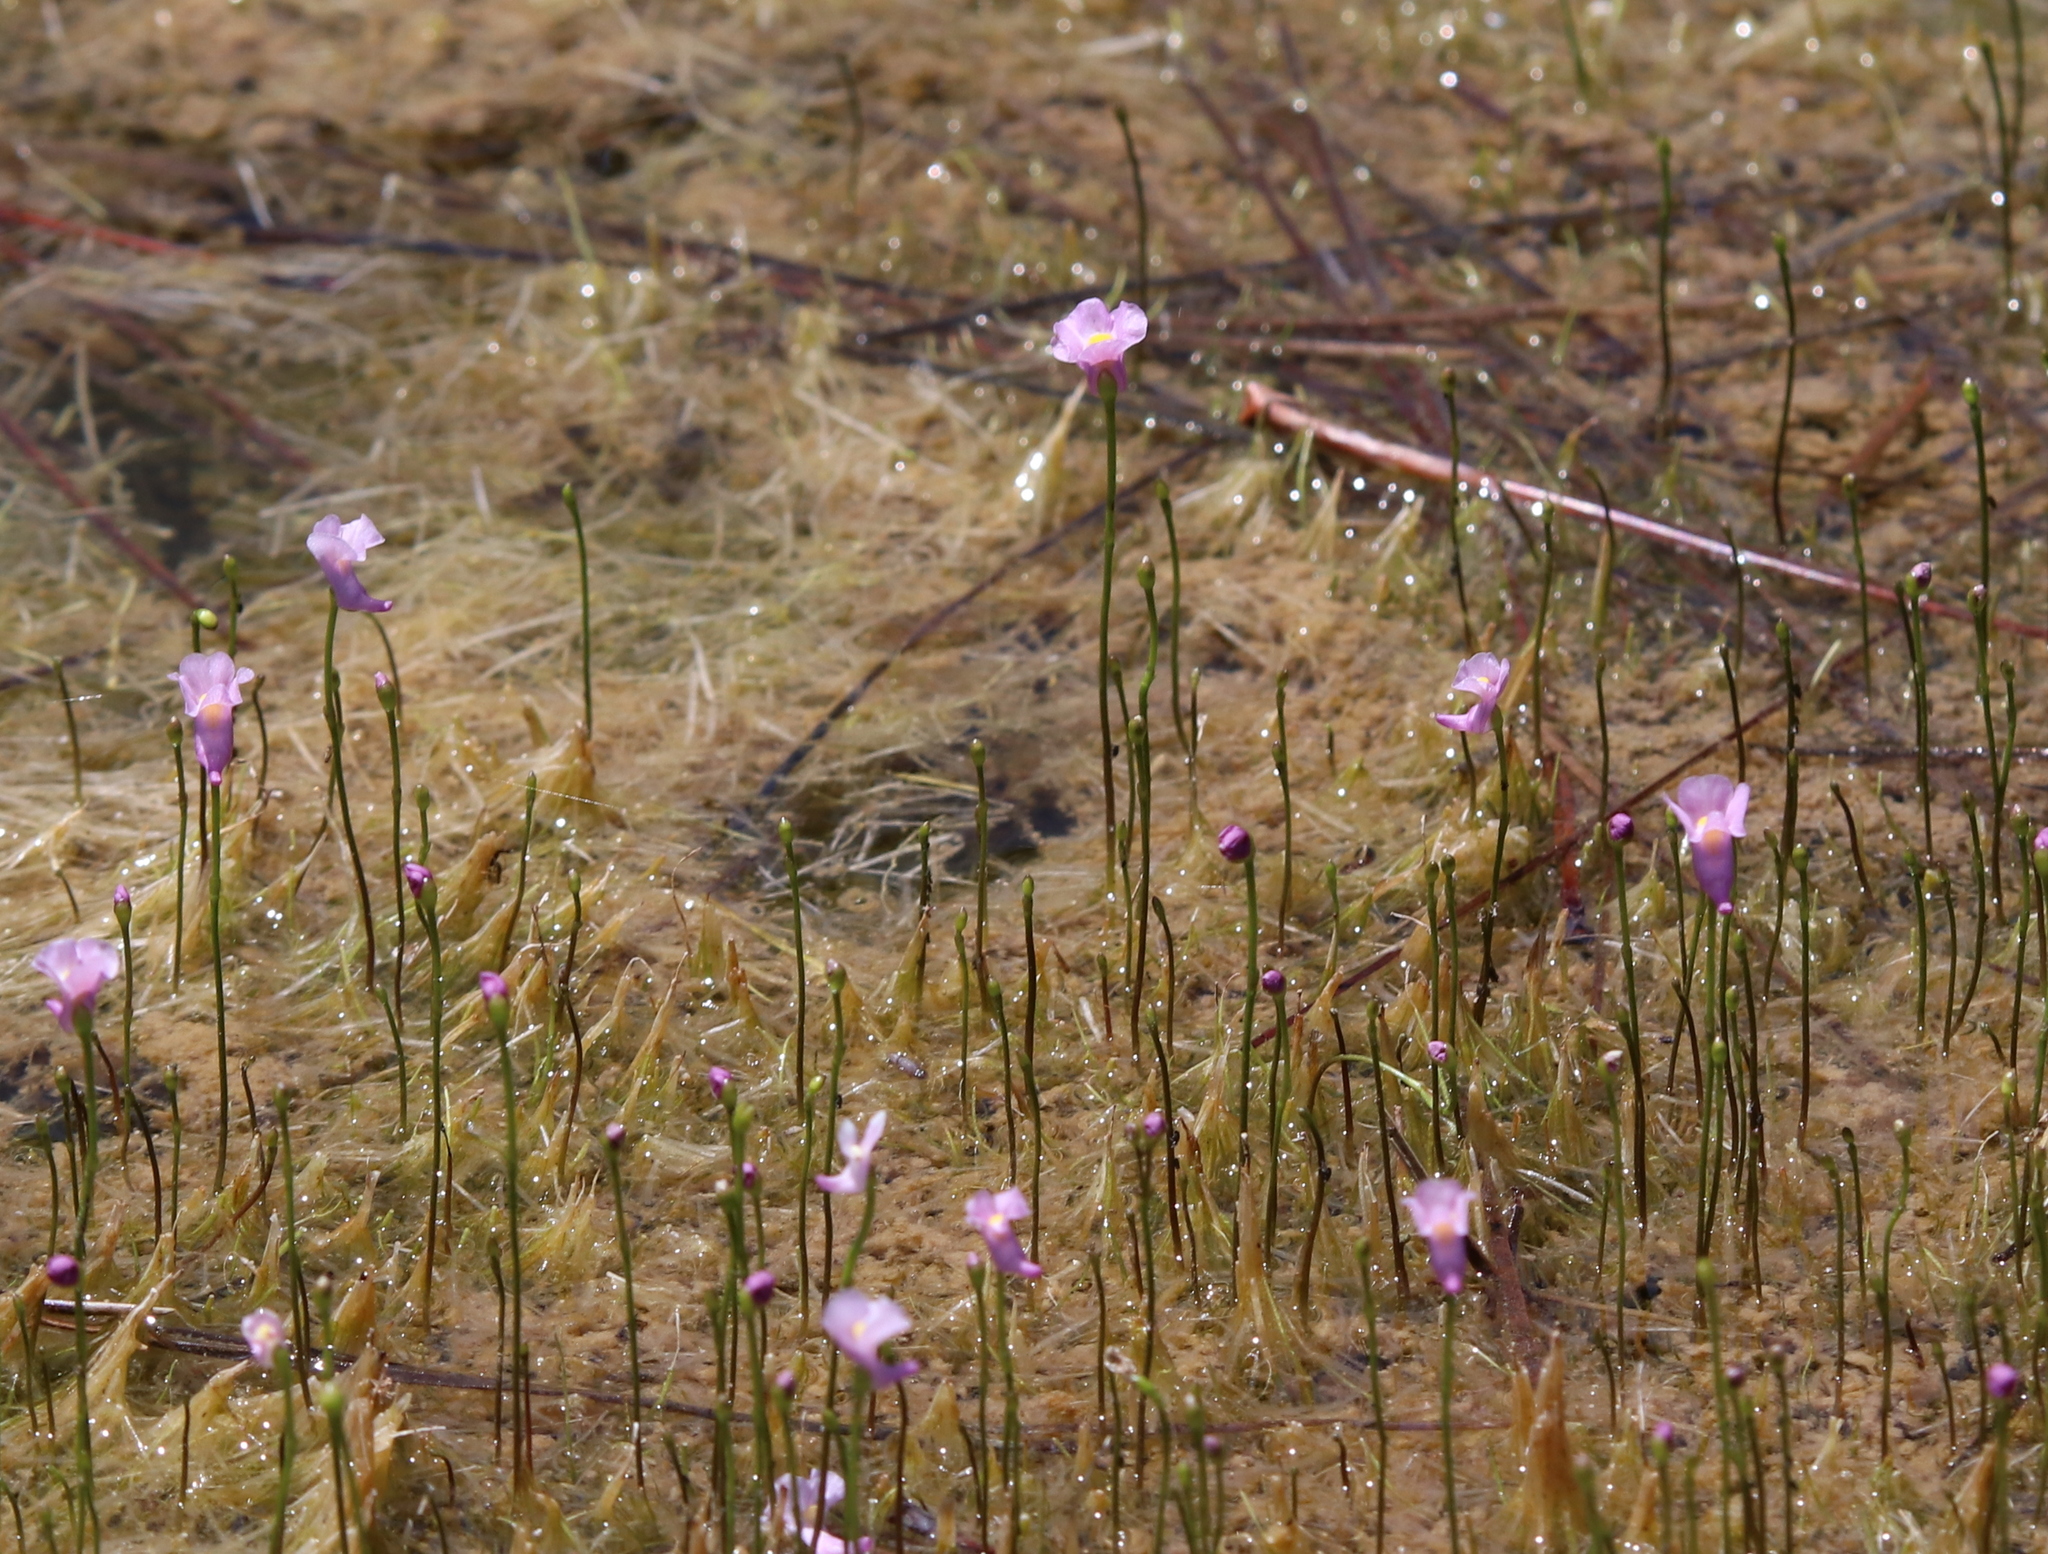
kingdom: Plantae
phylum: Tracheophyta
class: Magnoliopsida
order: Lamiales
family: Lentibulariaceae
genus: Utricularia
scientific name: Utricularia resupinata
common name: Northeastern bladderwort
